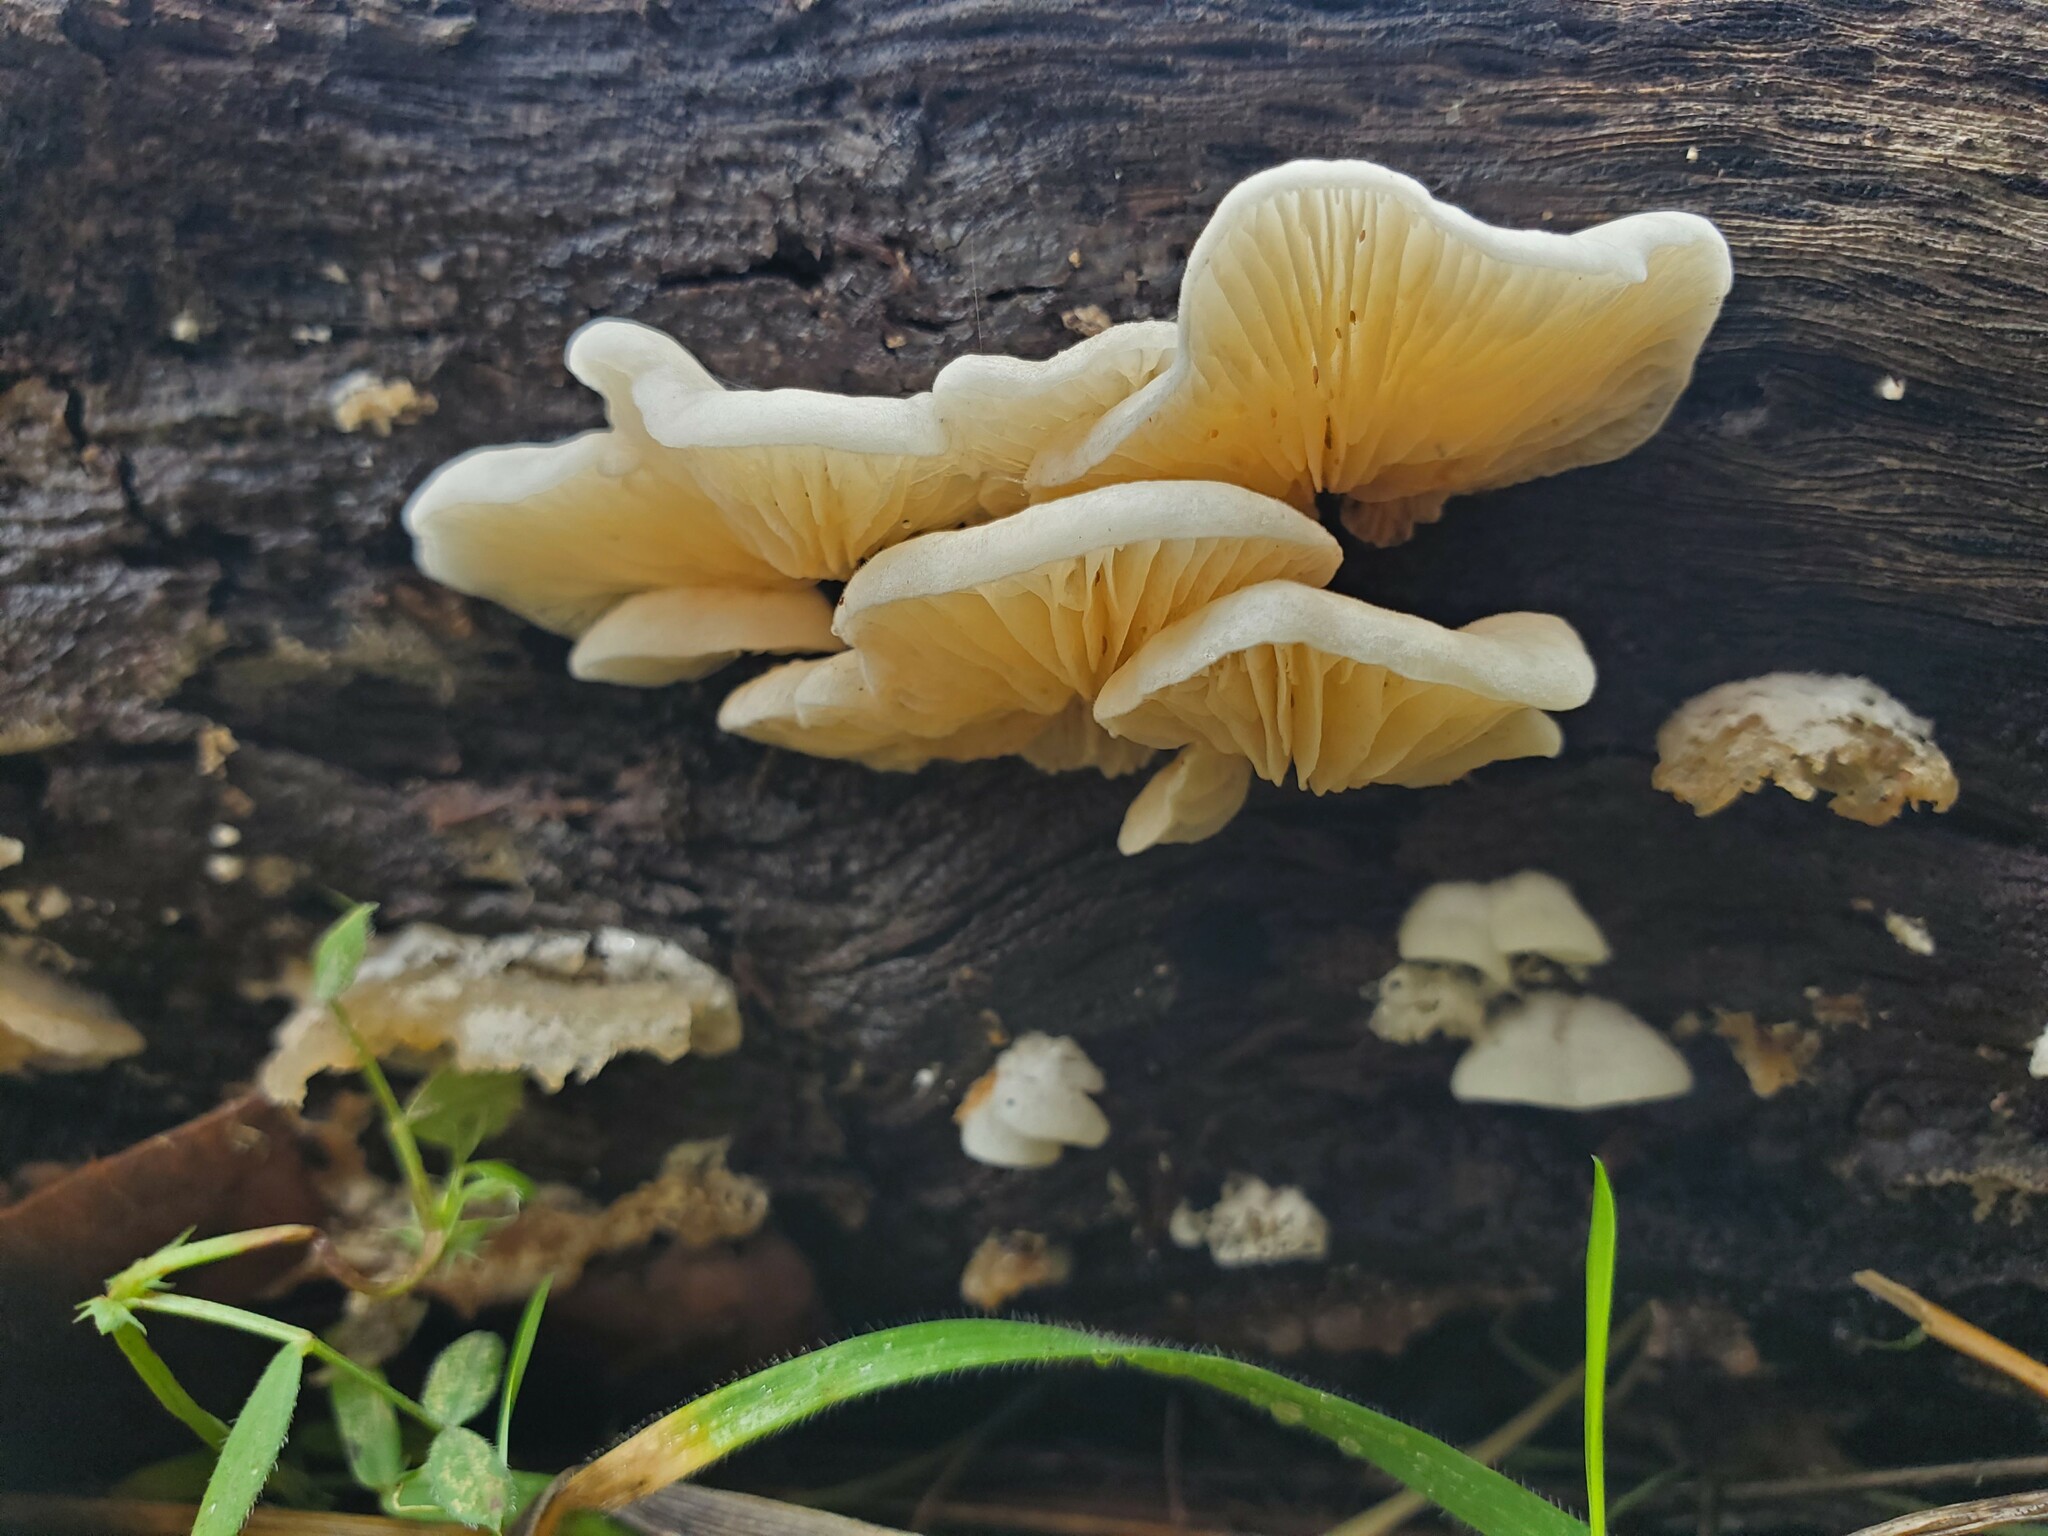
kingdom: Fungi
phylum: Basidiomycota
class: Agaricomycetes
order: Agaricales
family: Entolomataceae
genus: Clitopilus
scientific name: Clitopilus hobsonii
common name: Miller's oysterling
